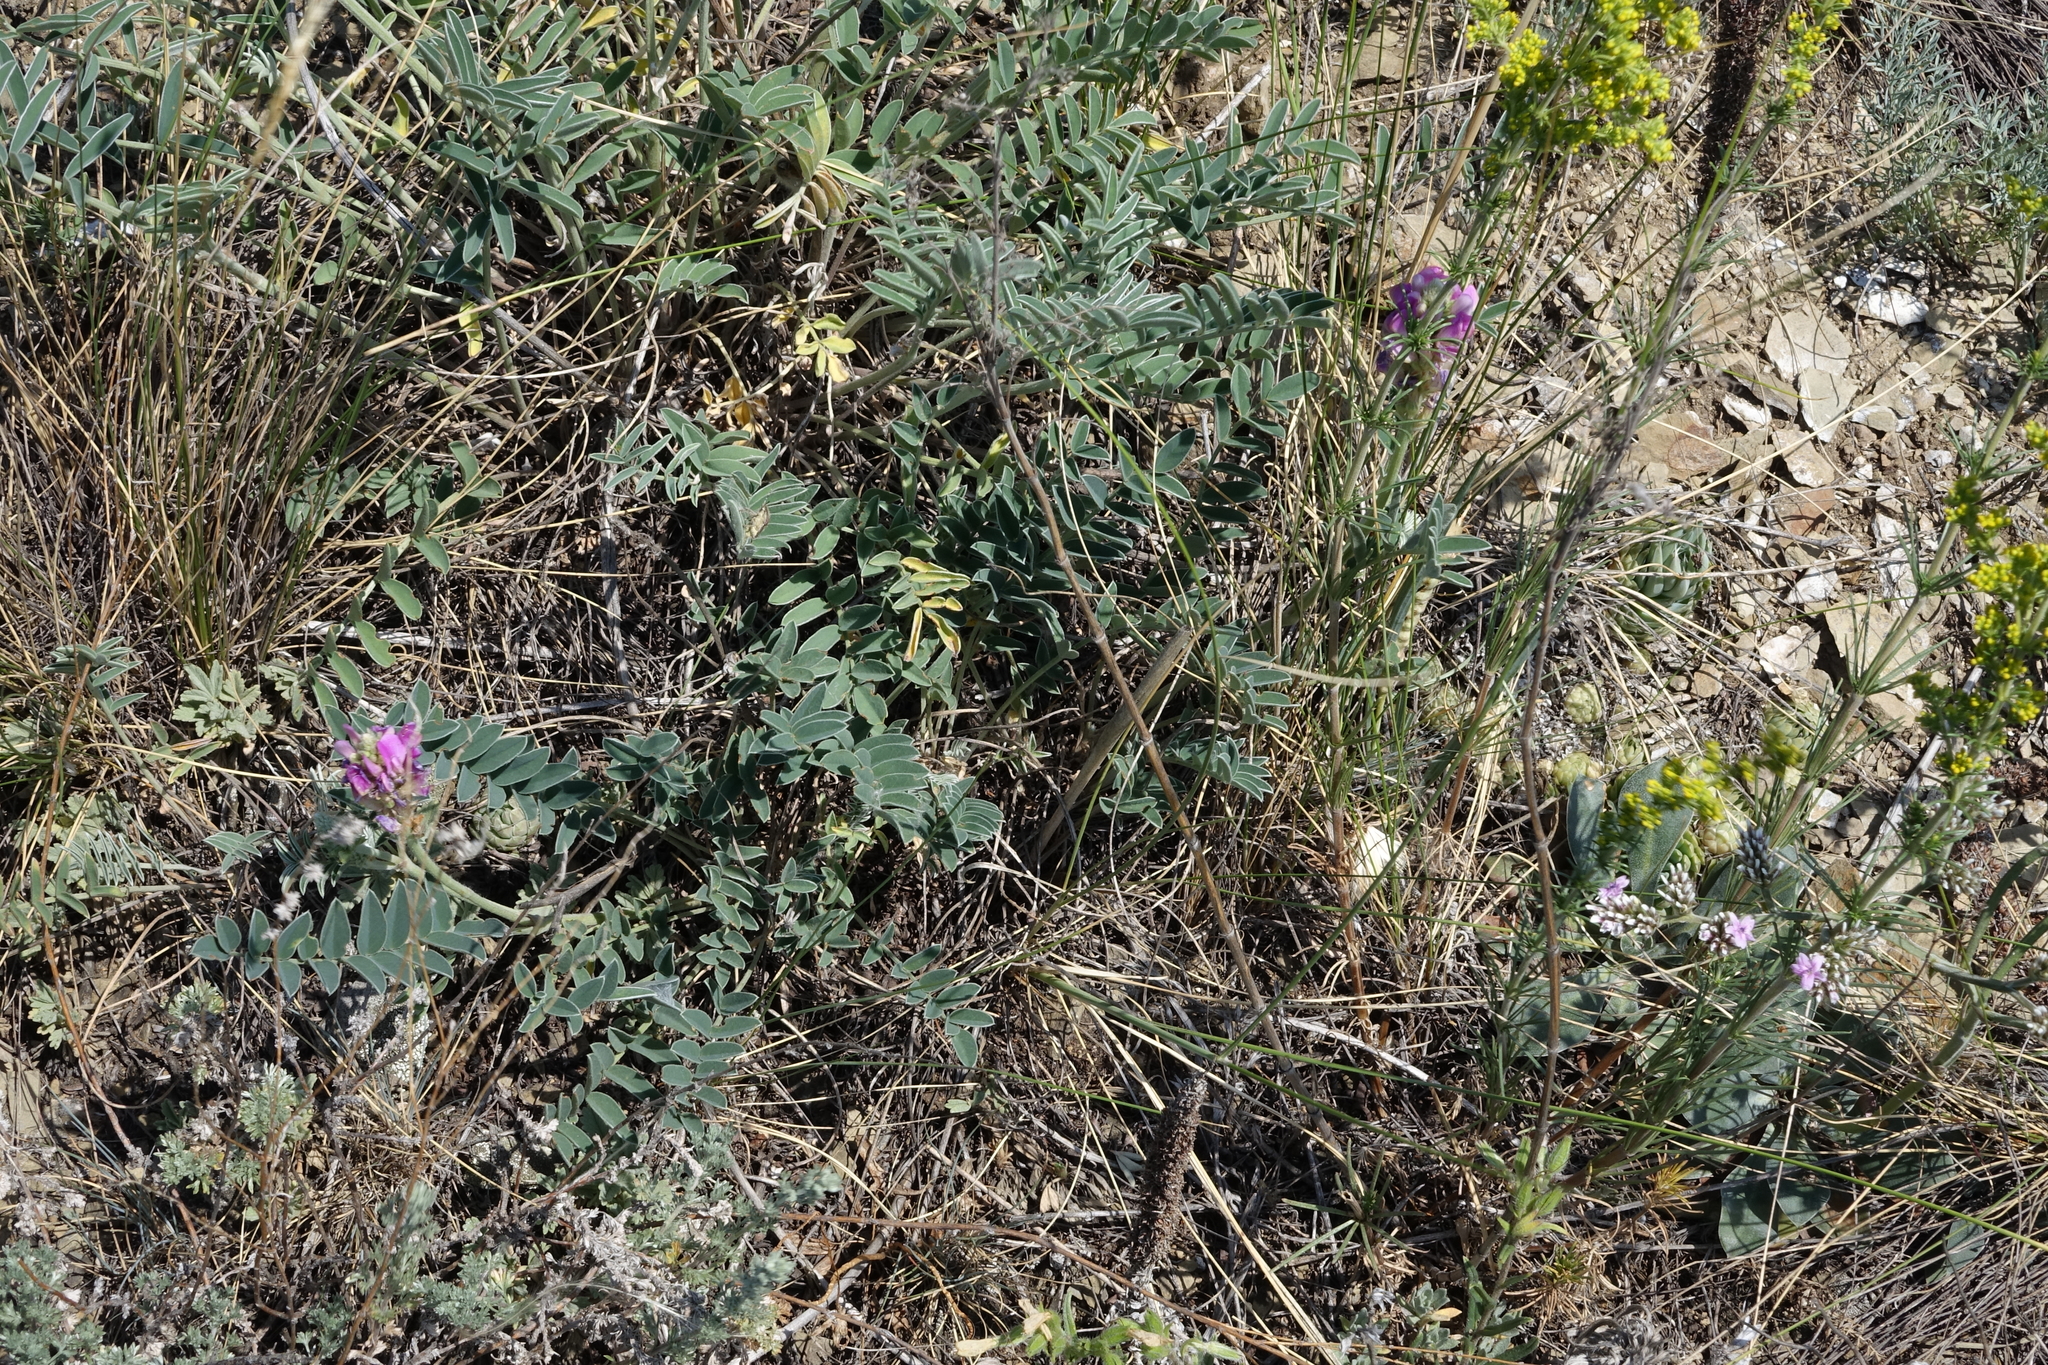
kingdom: Plantae
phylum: Tracheophyta
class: Magnoliopsida
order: Fabales
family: Fabaceae
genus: Hedysarum
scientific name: Hedysarum gmelinii
